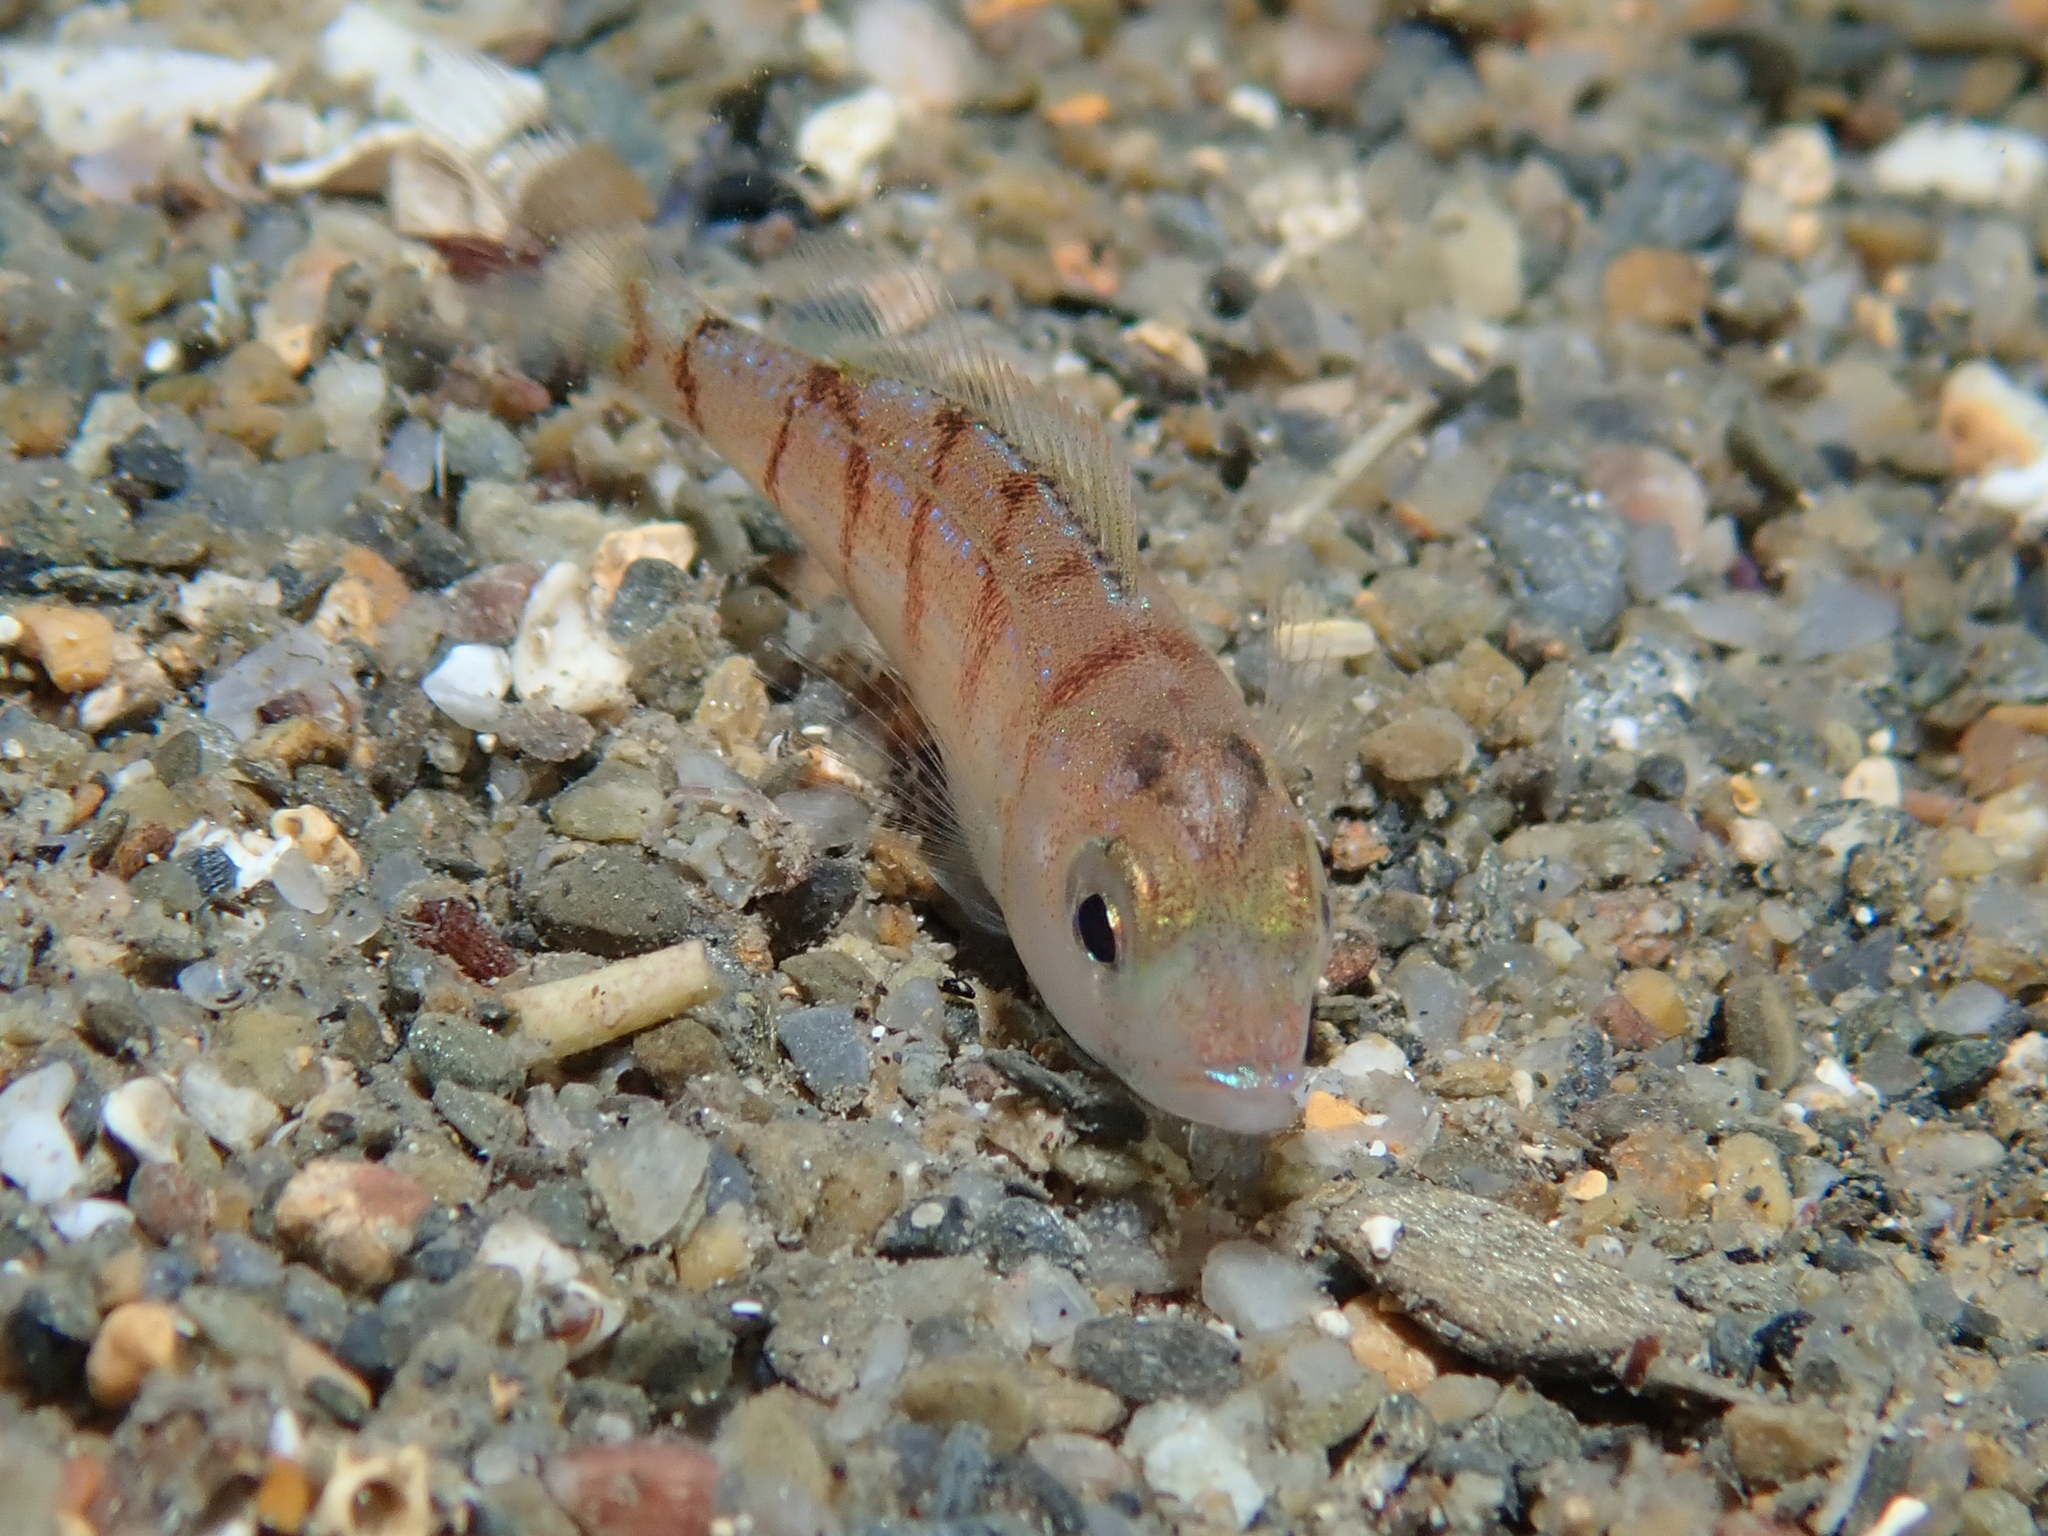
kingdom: Animalia
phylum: Chordata
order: Perciformes
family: Sparidae
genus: Pagellus
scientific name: Pagellus erythrinus
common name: Pandora
